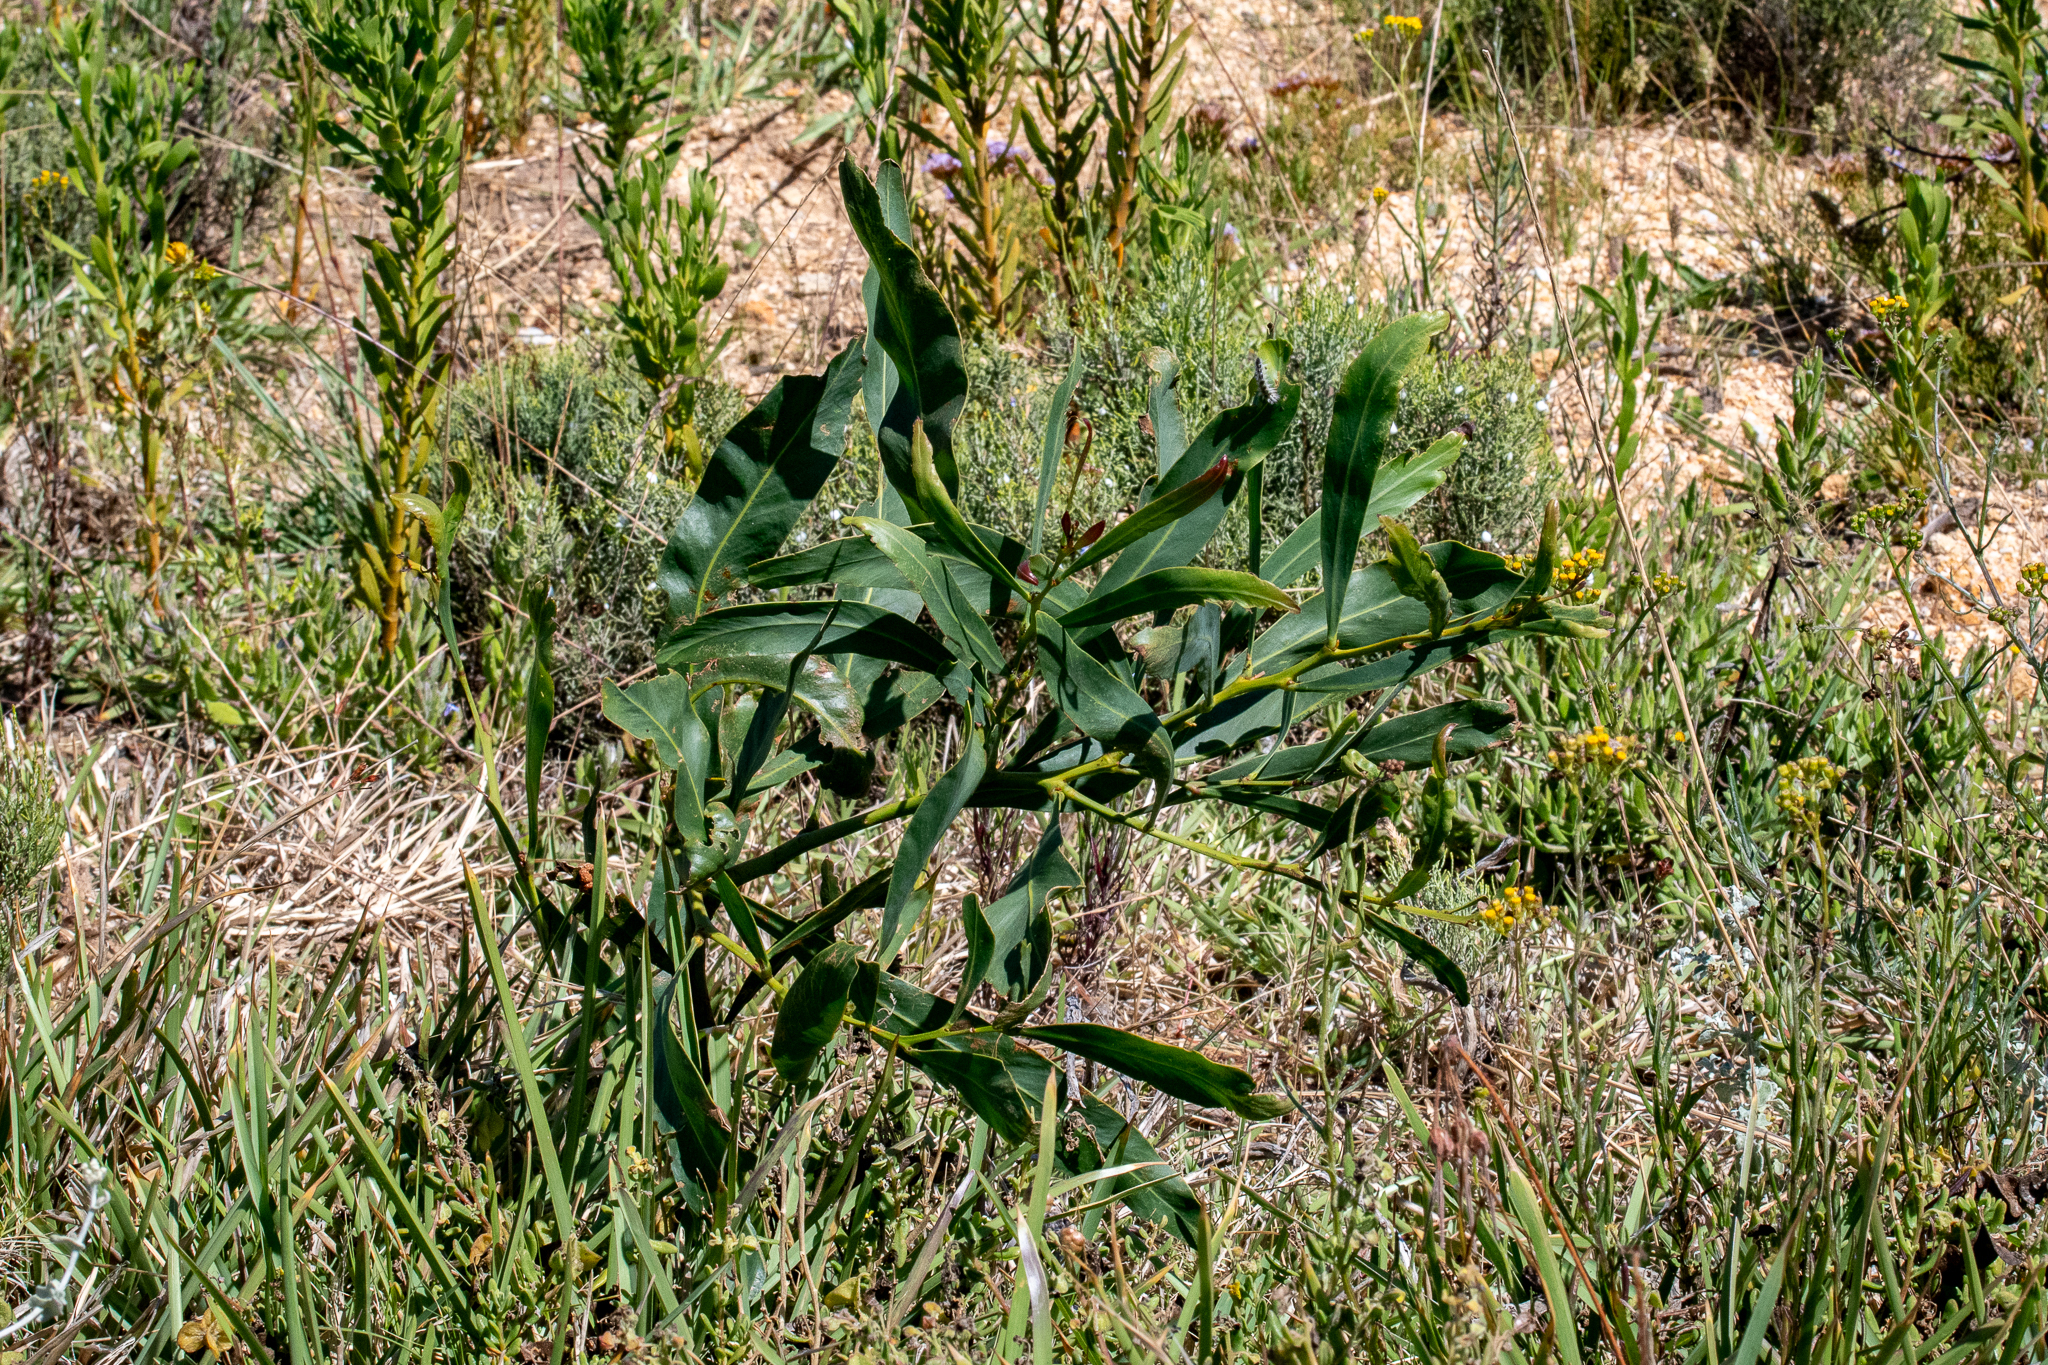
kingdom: Plantae
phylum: Tracheophyta
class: Magnoliopsida
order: Fabales
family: Fabaceae
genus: Acacia
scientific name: Acacia saligna
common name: Orange wattle
